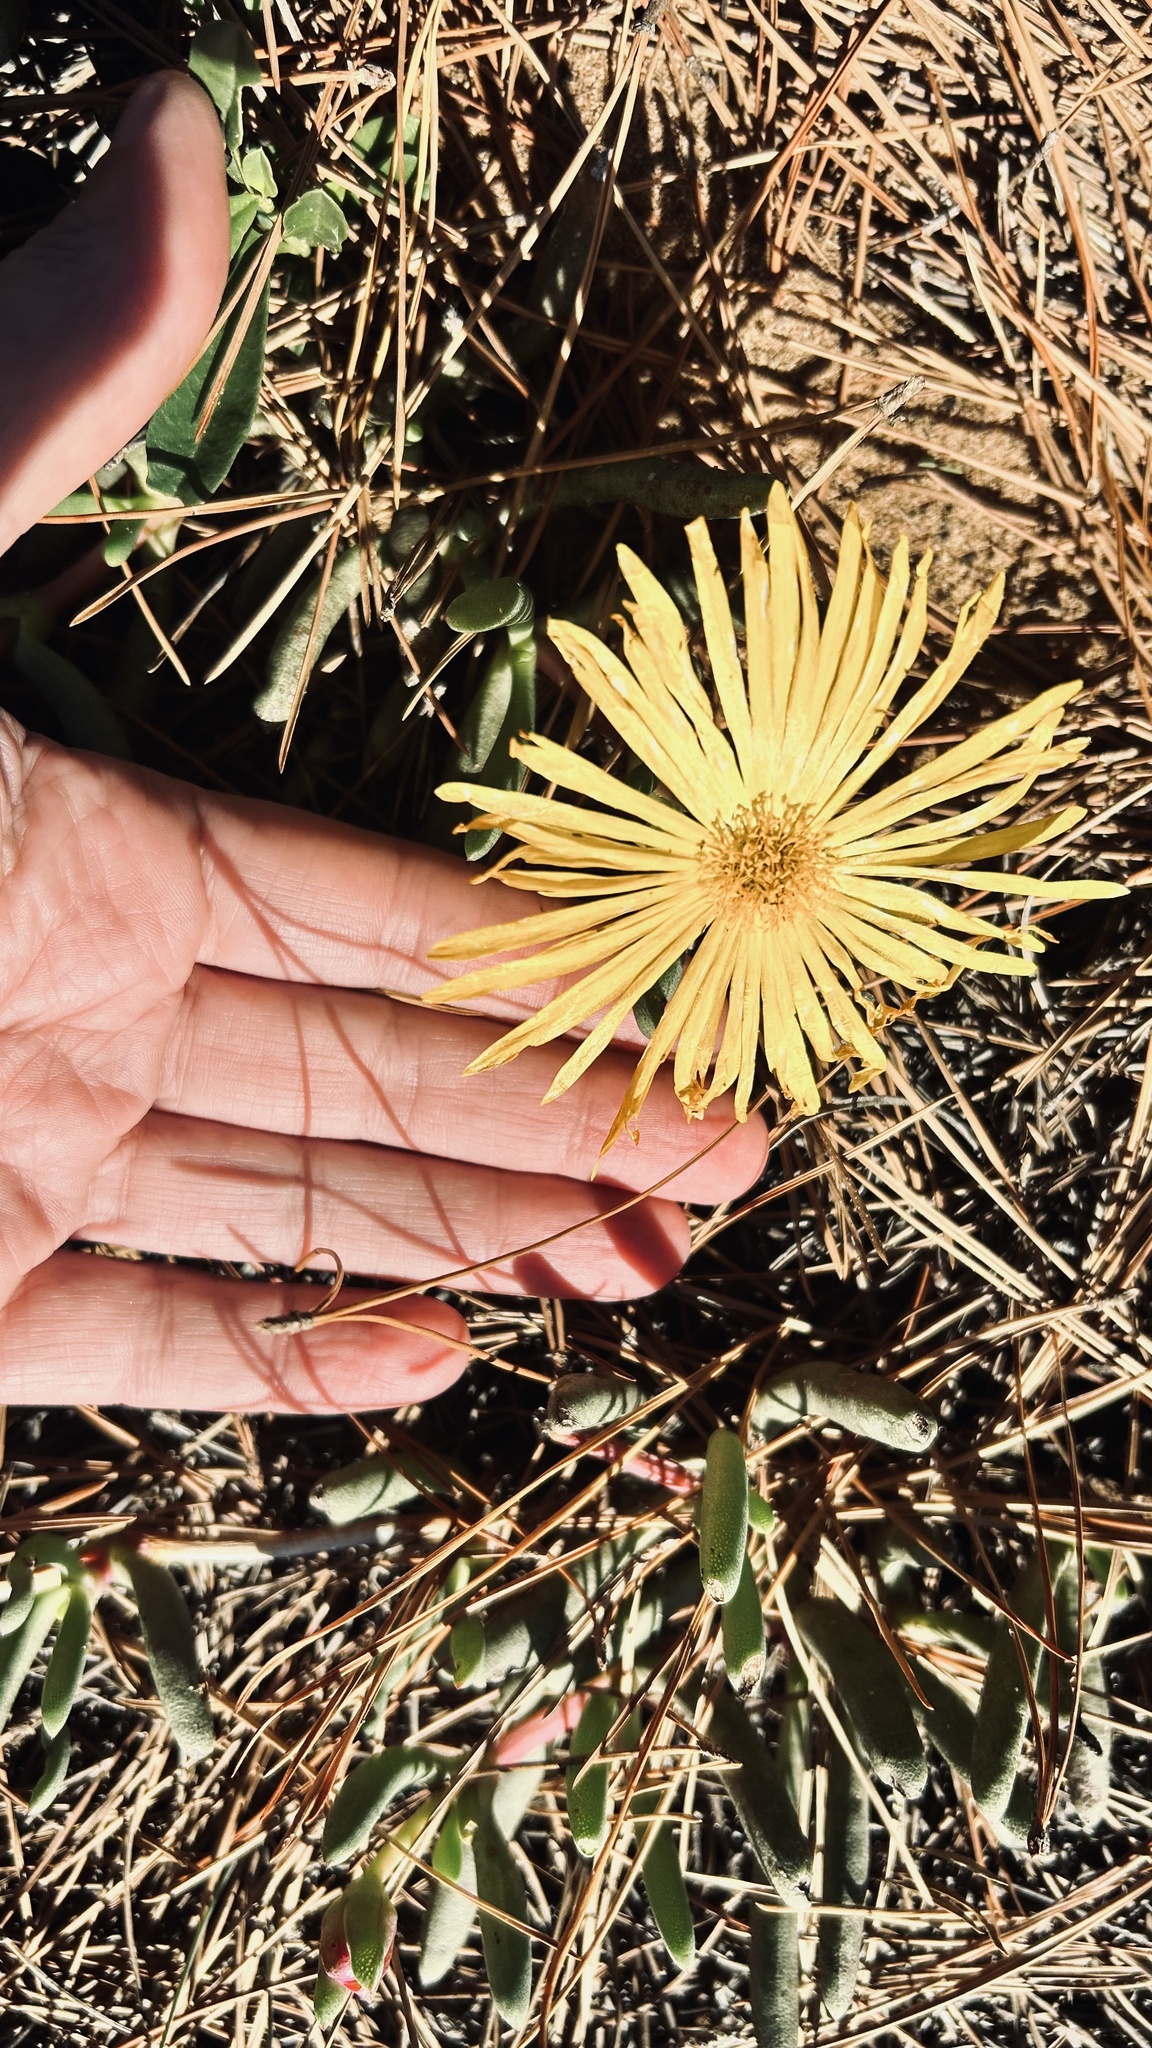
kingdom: Plantae
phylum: Tracheophyta
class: Magnoliopsida
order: Caryophyllales
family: Aizoaceae
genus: Jordaaniella
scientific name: Jordaaniella dubia
